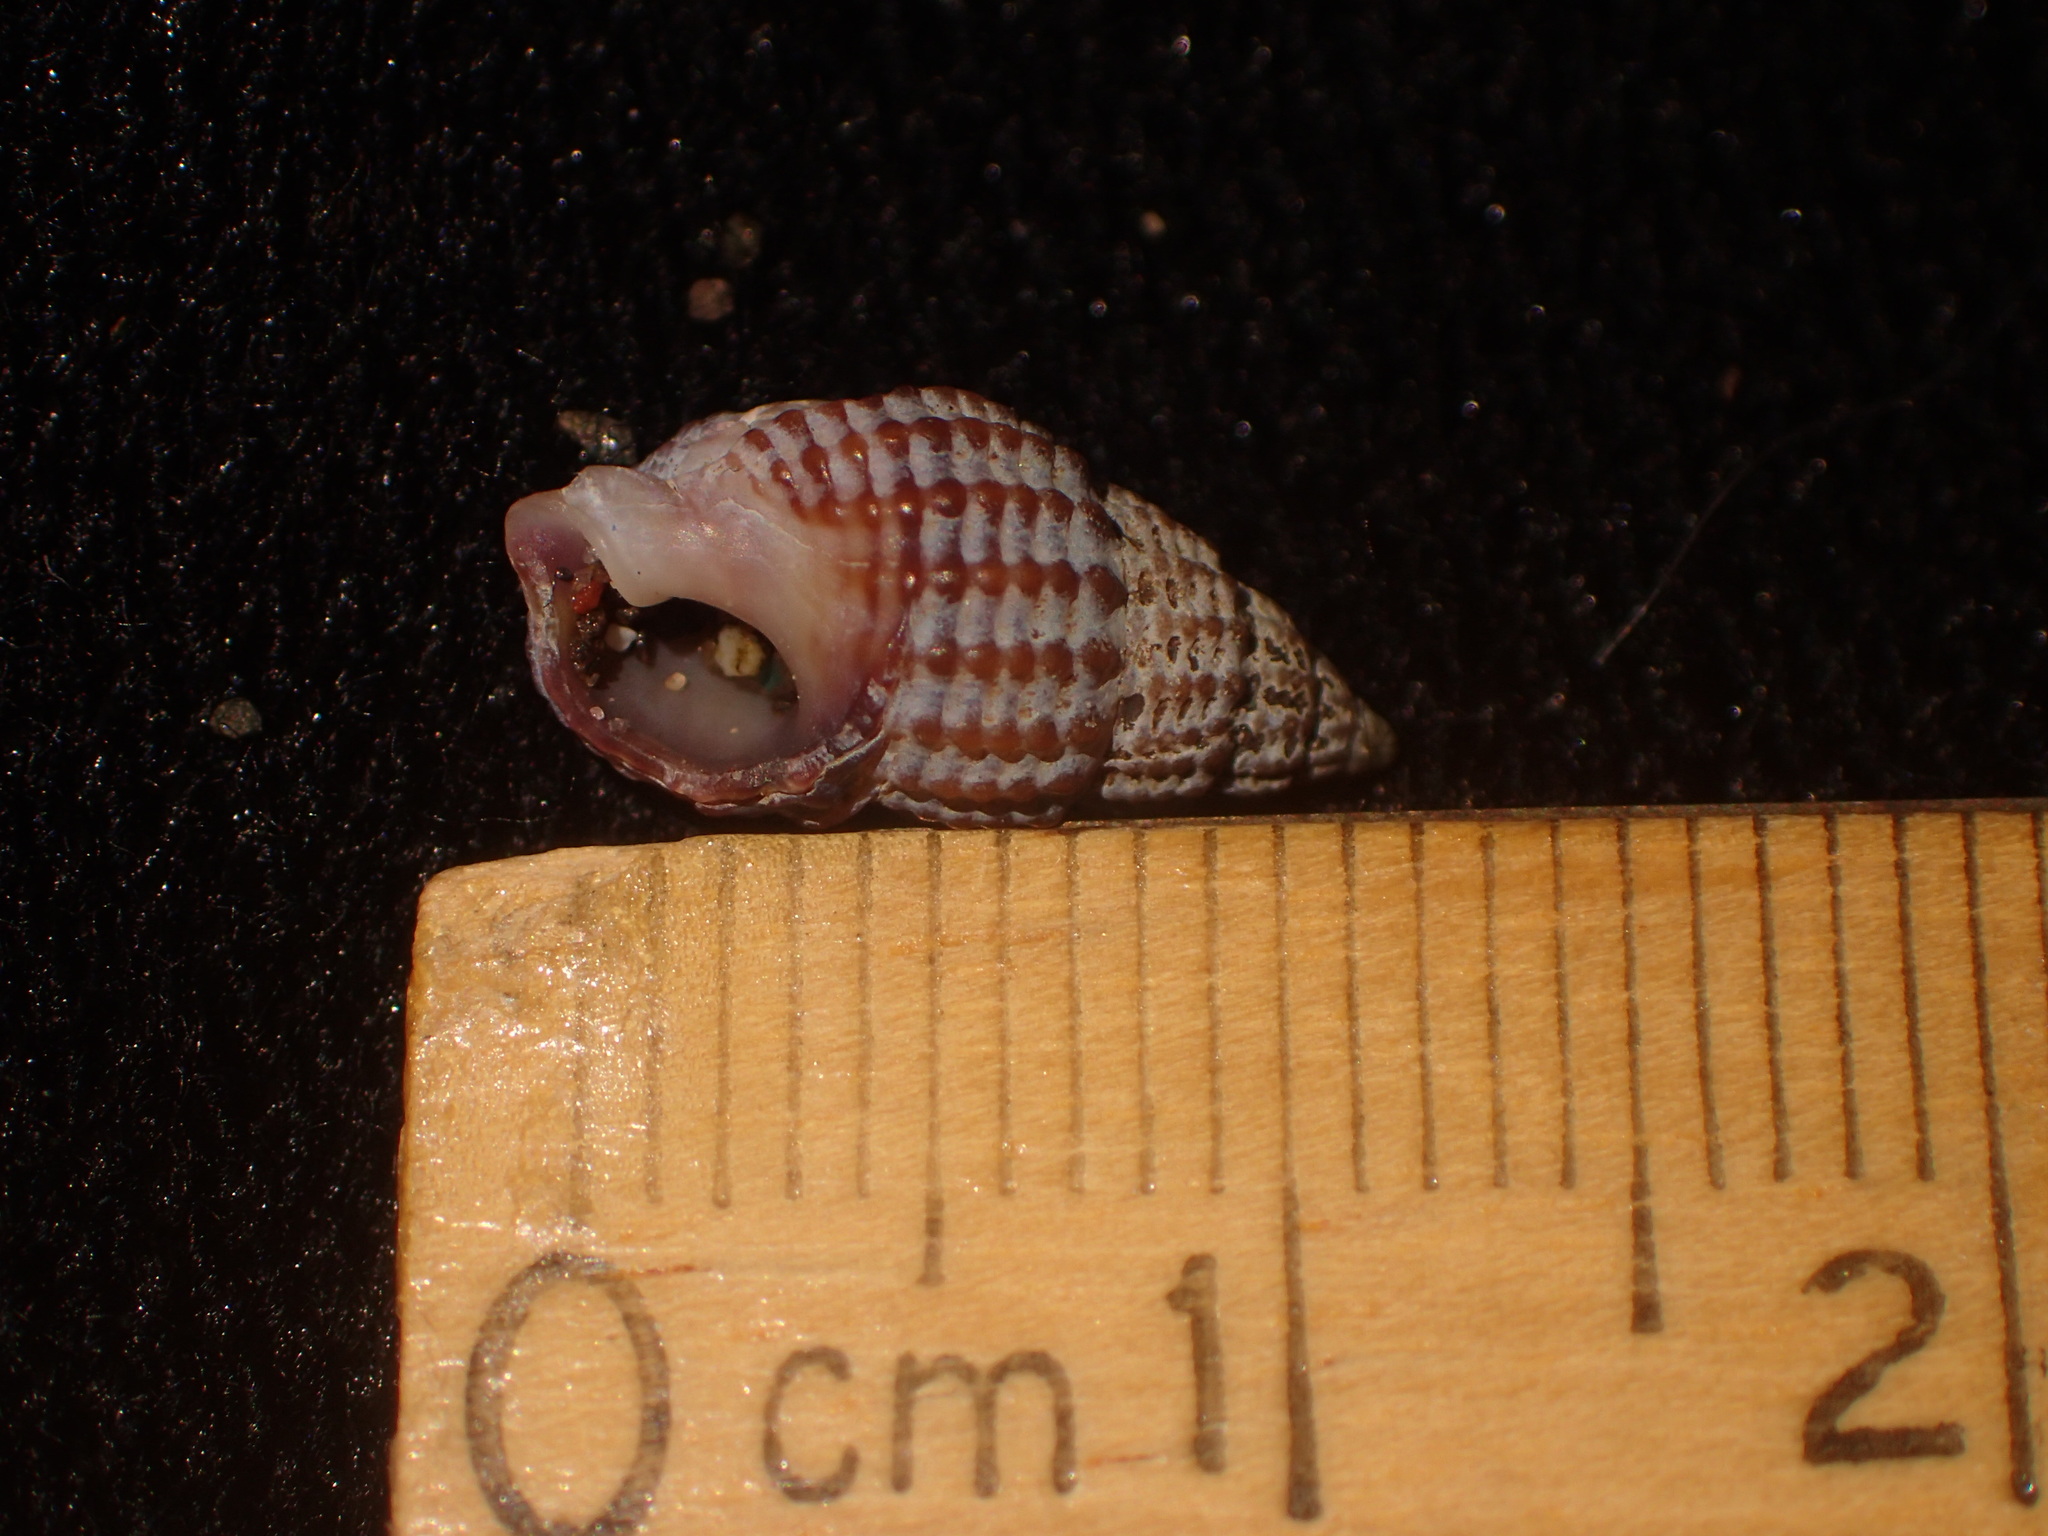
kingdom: Animalia
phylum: Mollusca
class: Gastropoda
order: Neogastropoda
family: Nassariidae
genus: Ilyanassa
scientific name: Ilyanassa trivittata
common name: Three-line mudsnail
